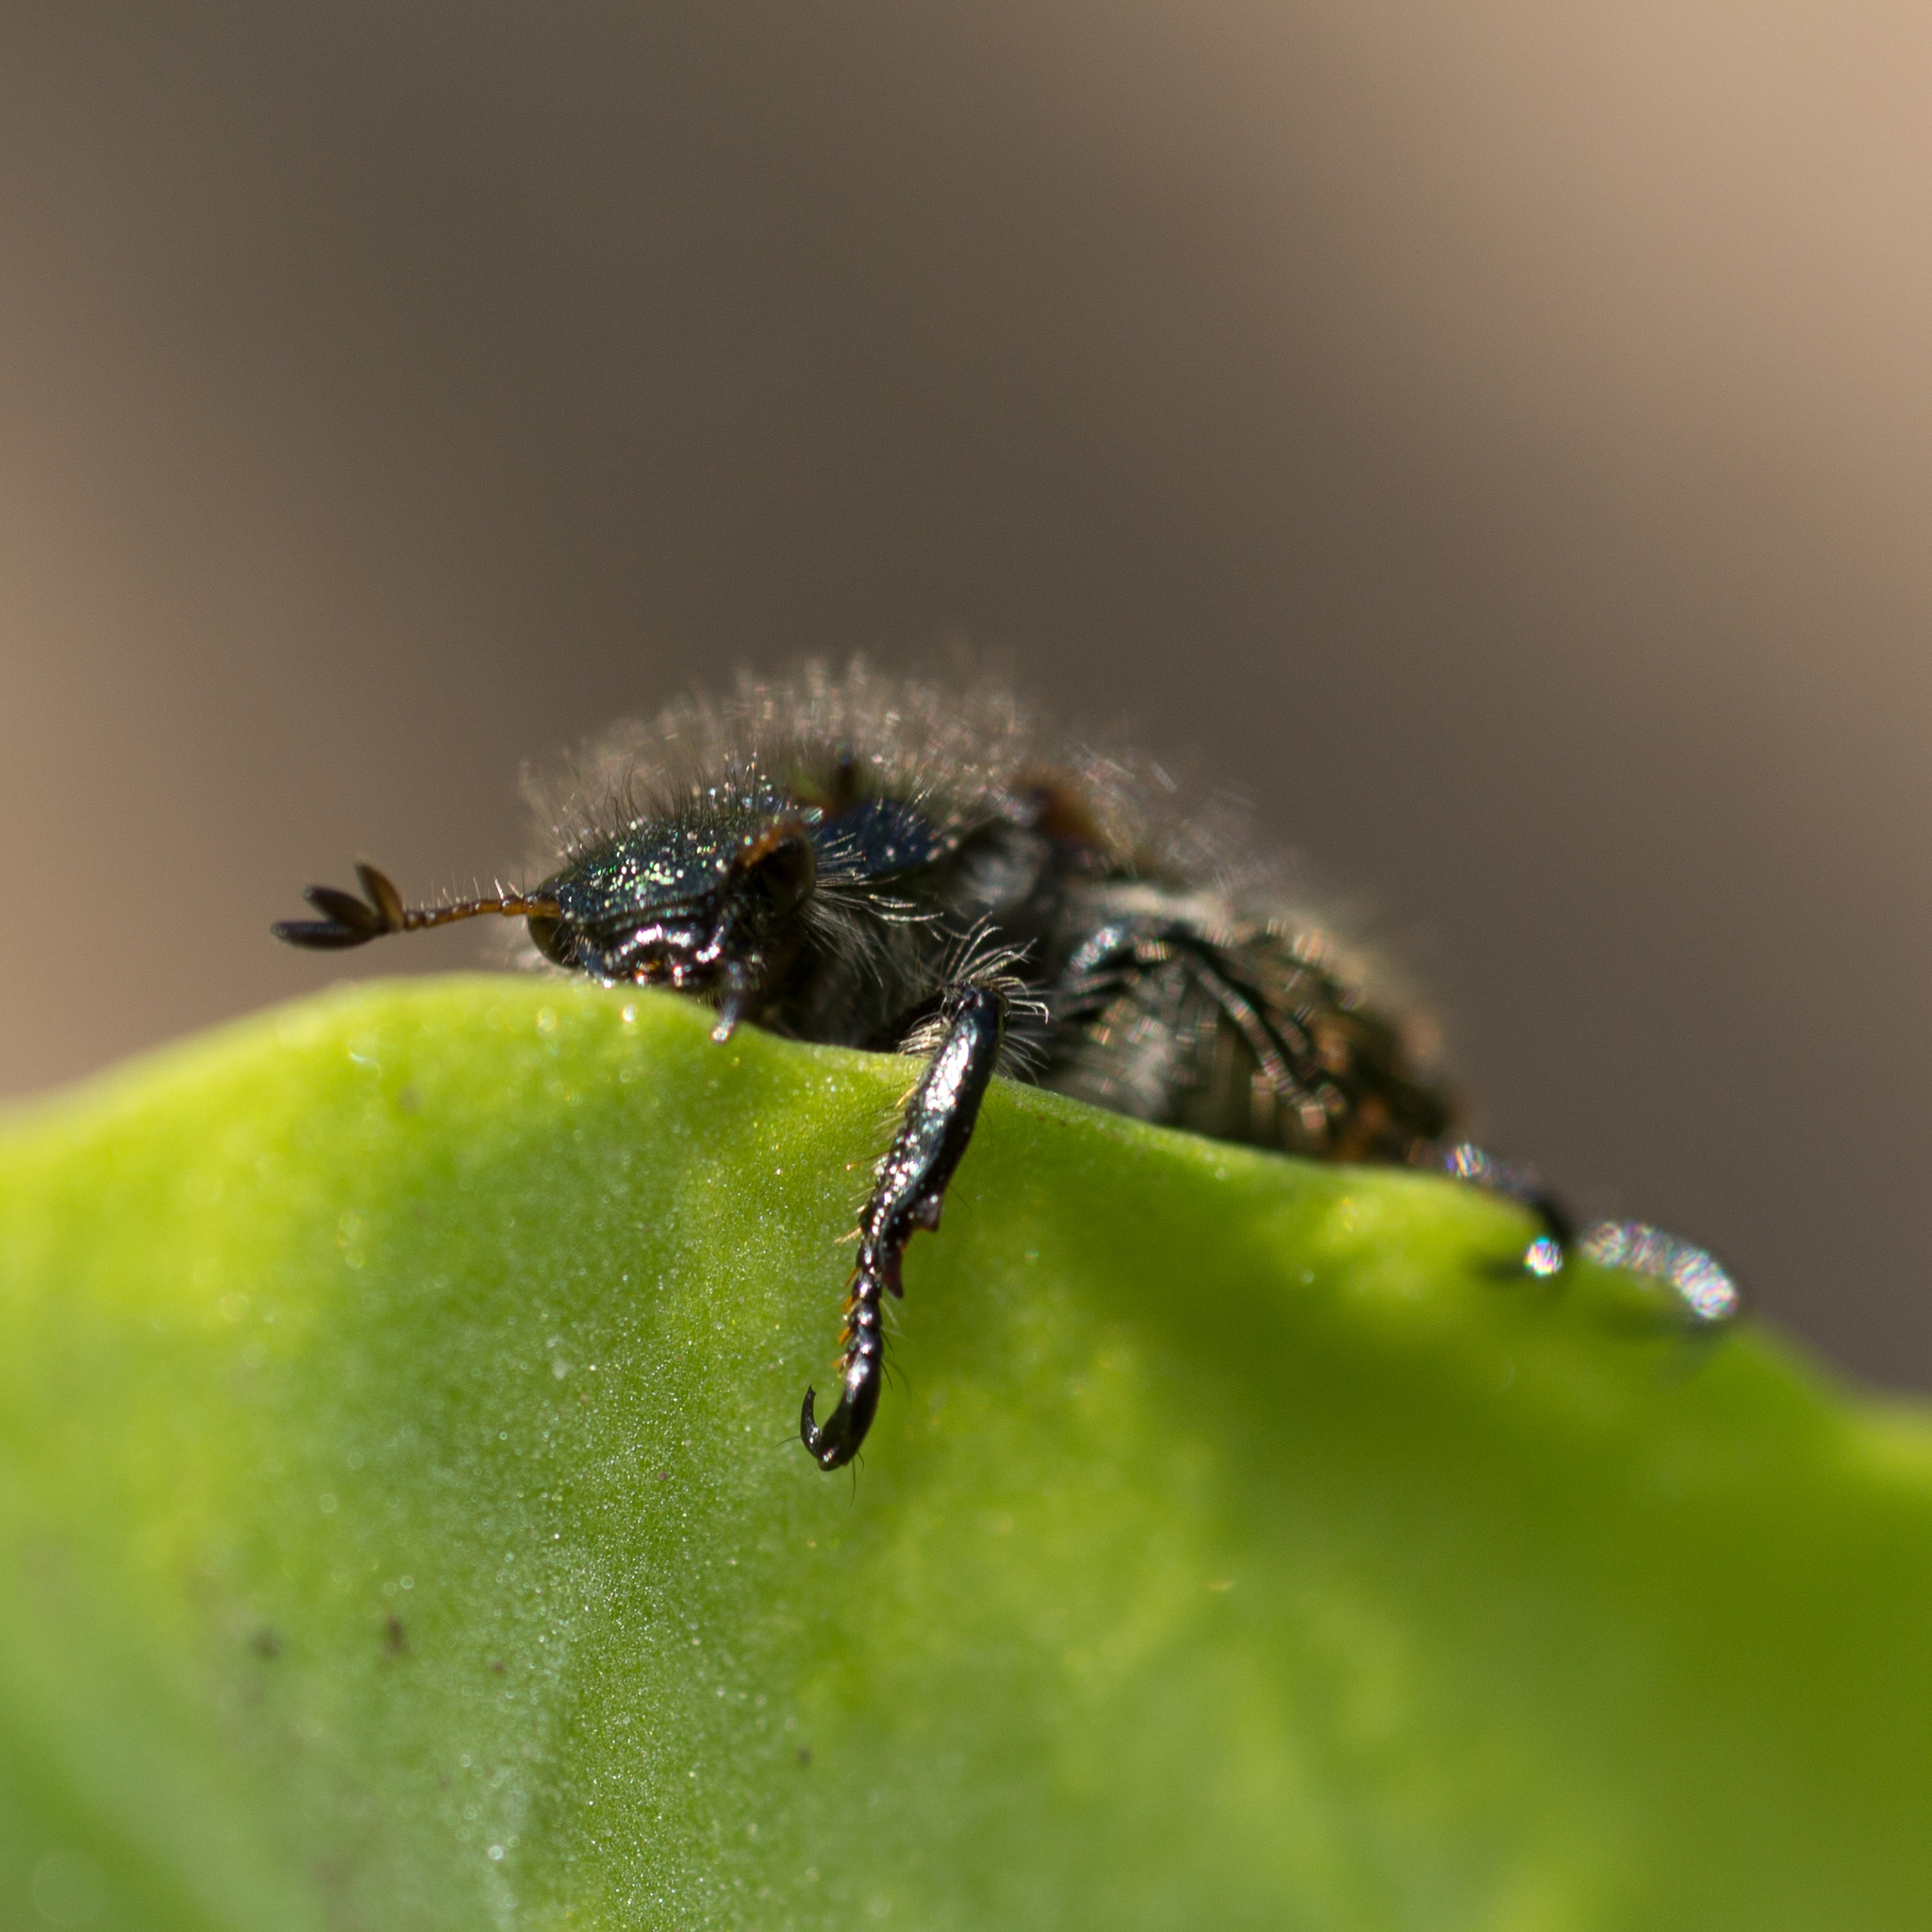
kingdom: Animalia
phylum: Arthropoda
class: Insecta
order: Coleoptera
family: Scarabaeidae
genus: Phyllopertha
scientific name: Phyllopertha horticola
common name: Garden chafer
